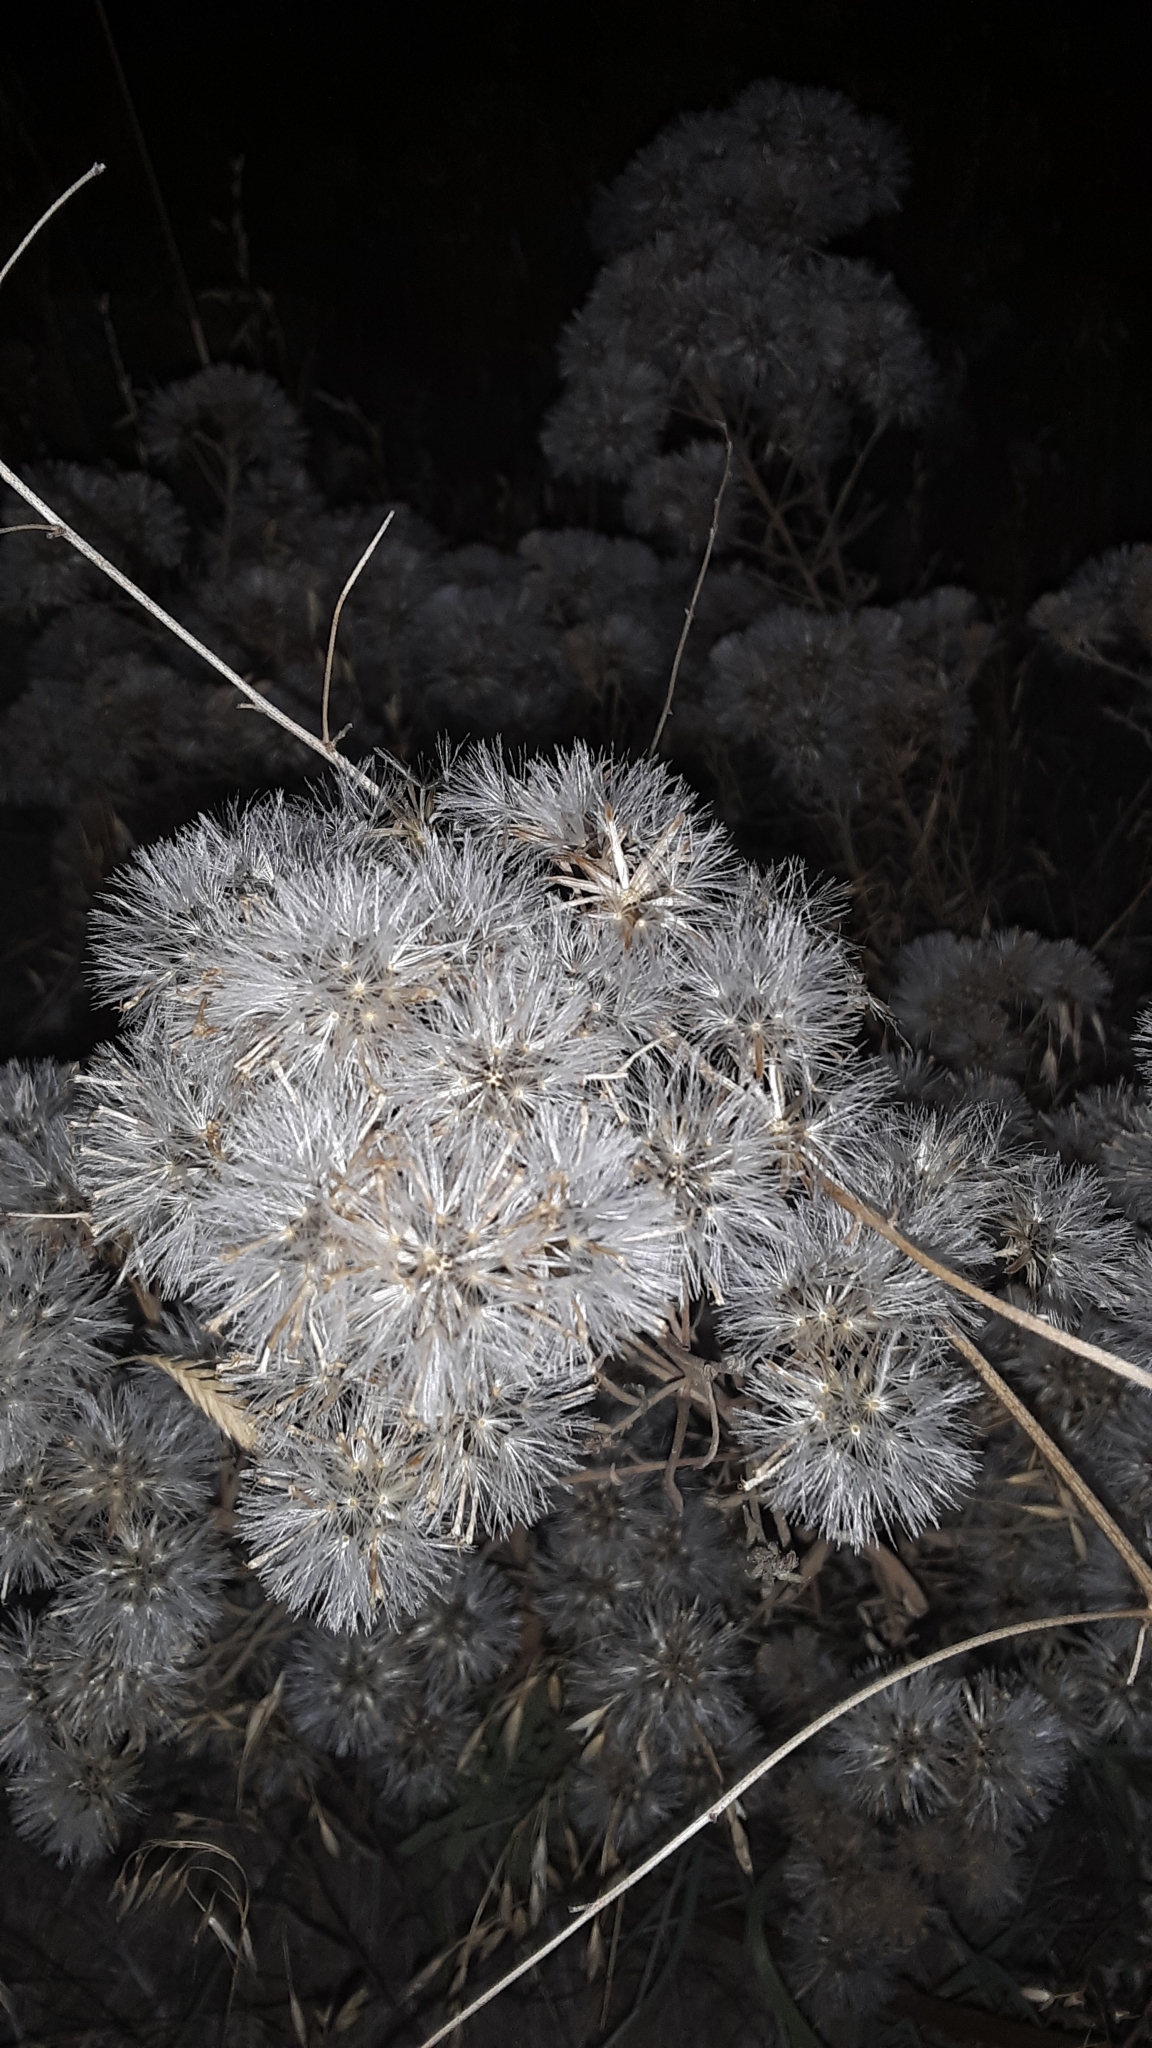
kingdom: Plantae
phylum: Tracheophyta
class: Magnoliopsida
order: Asterales
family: Asteraceae
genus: Brickellia
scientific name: Brickellia eupatorioides
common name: False boneset
